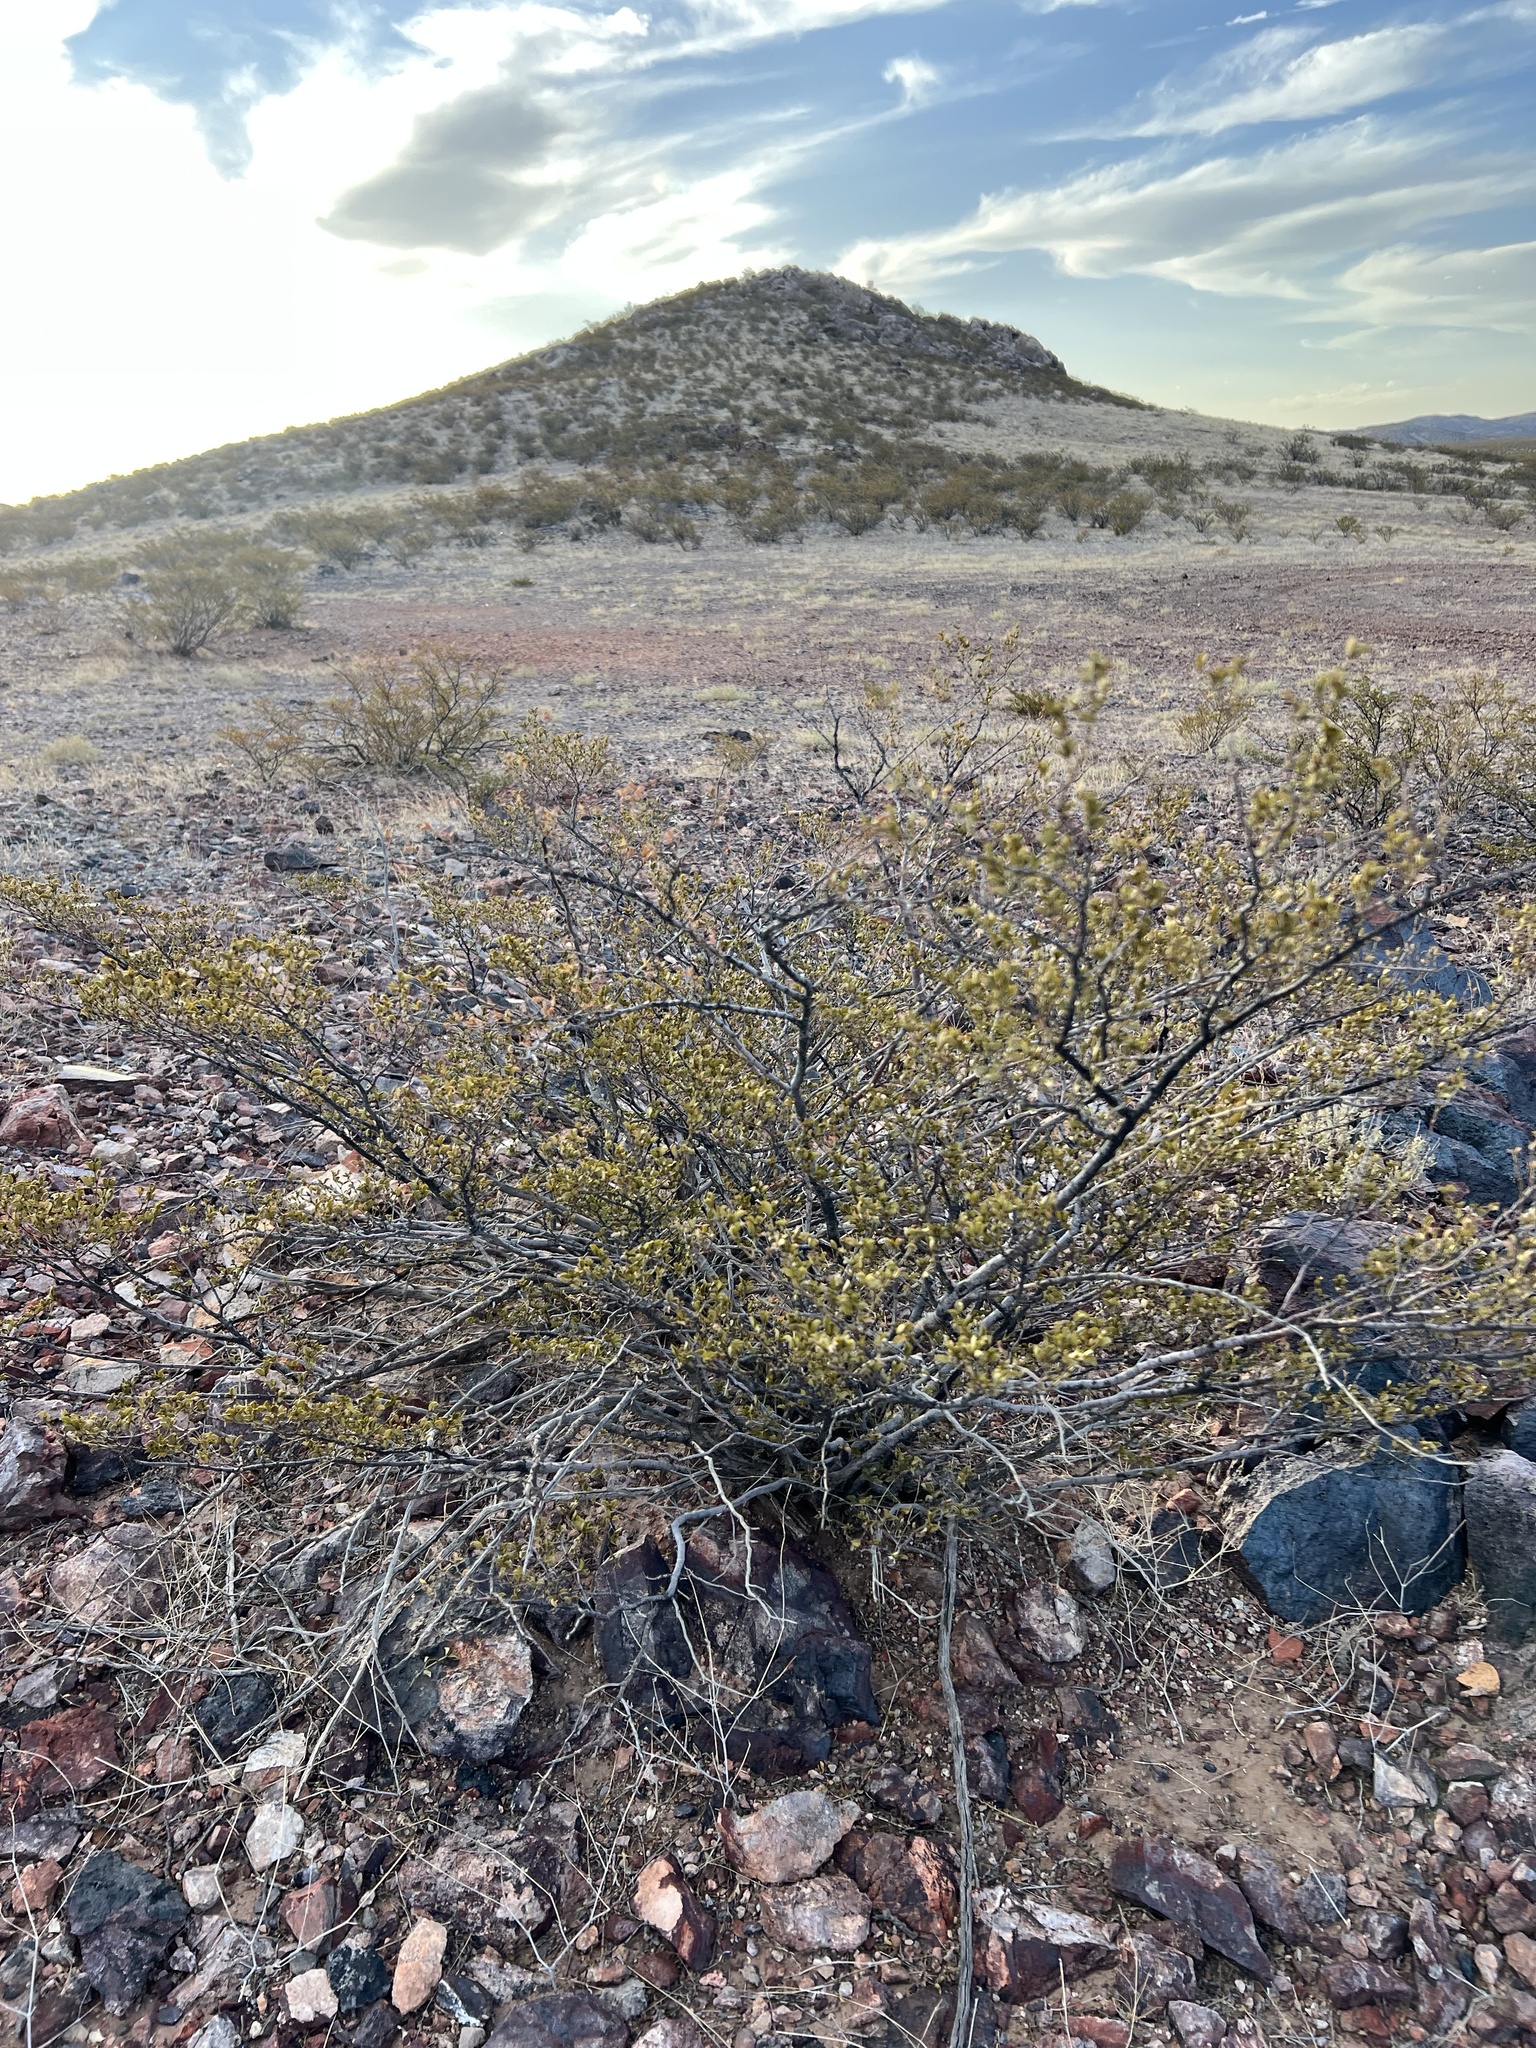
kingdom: Plantae
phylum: Tracheophyta
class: Magnoliopsida
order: Zygophyllales
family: Zygophyllaceae
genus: Larrea
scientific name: Larrea tridentata
